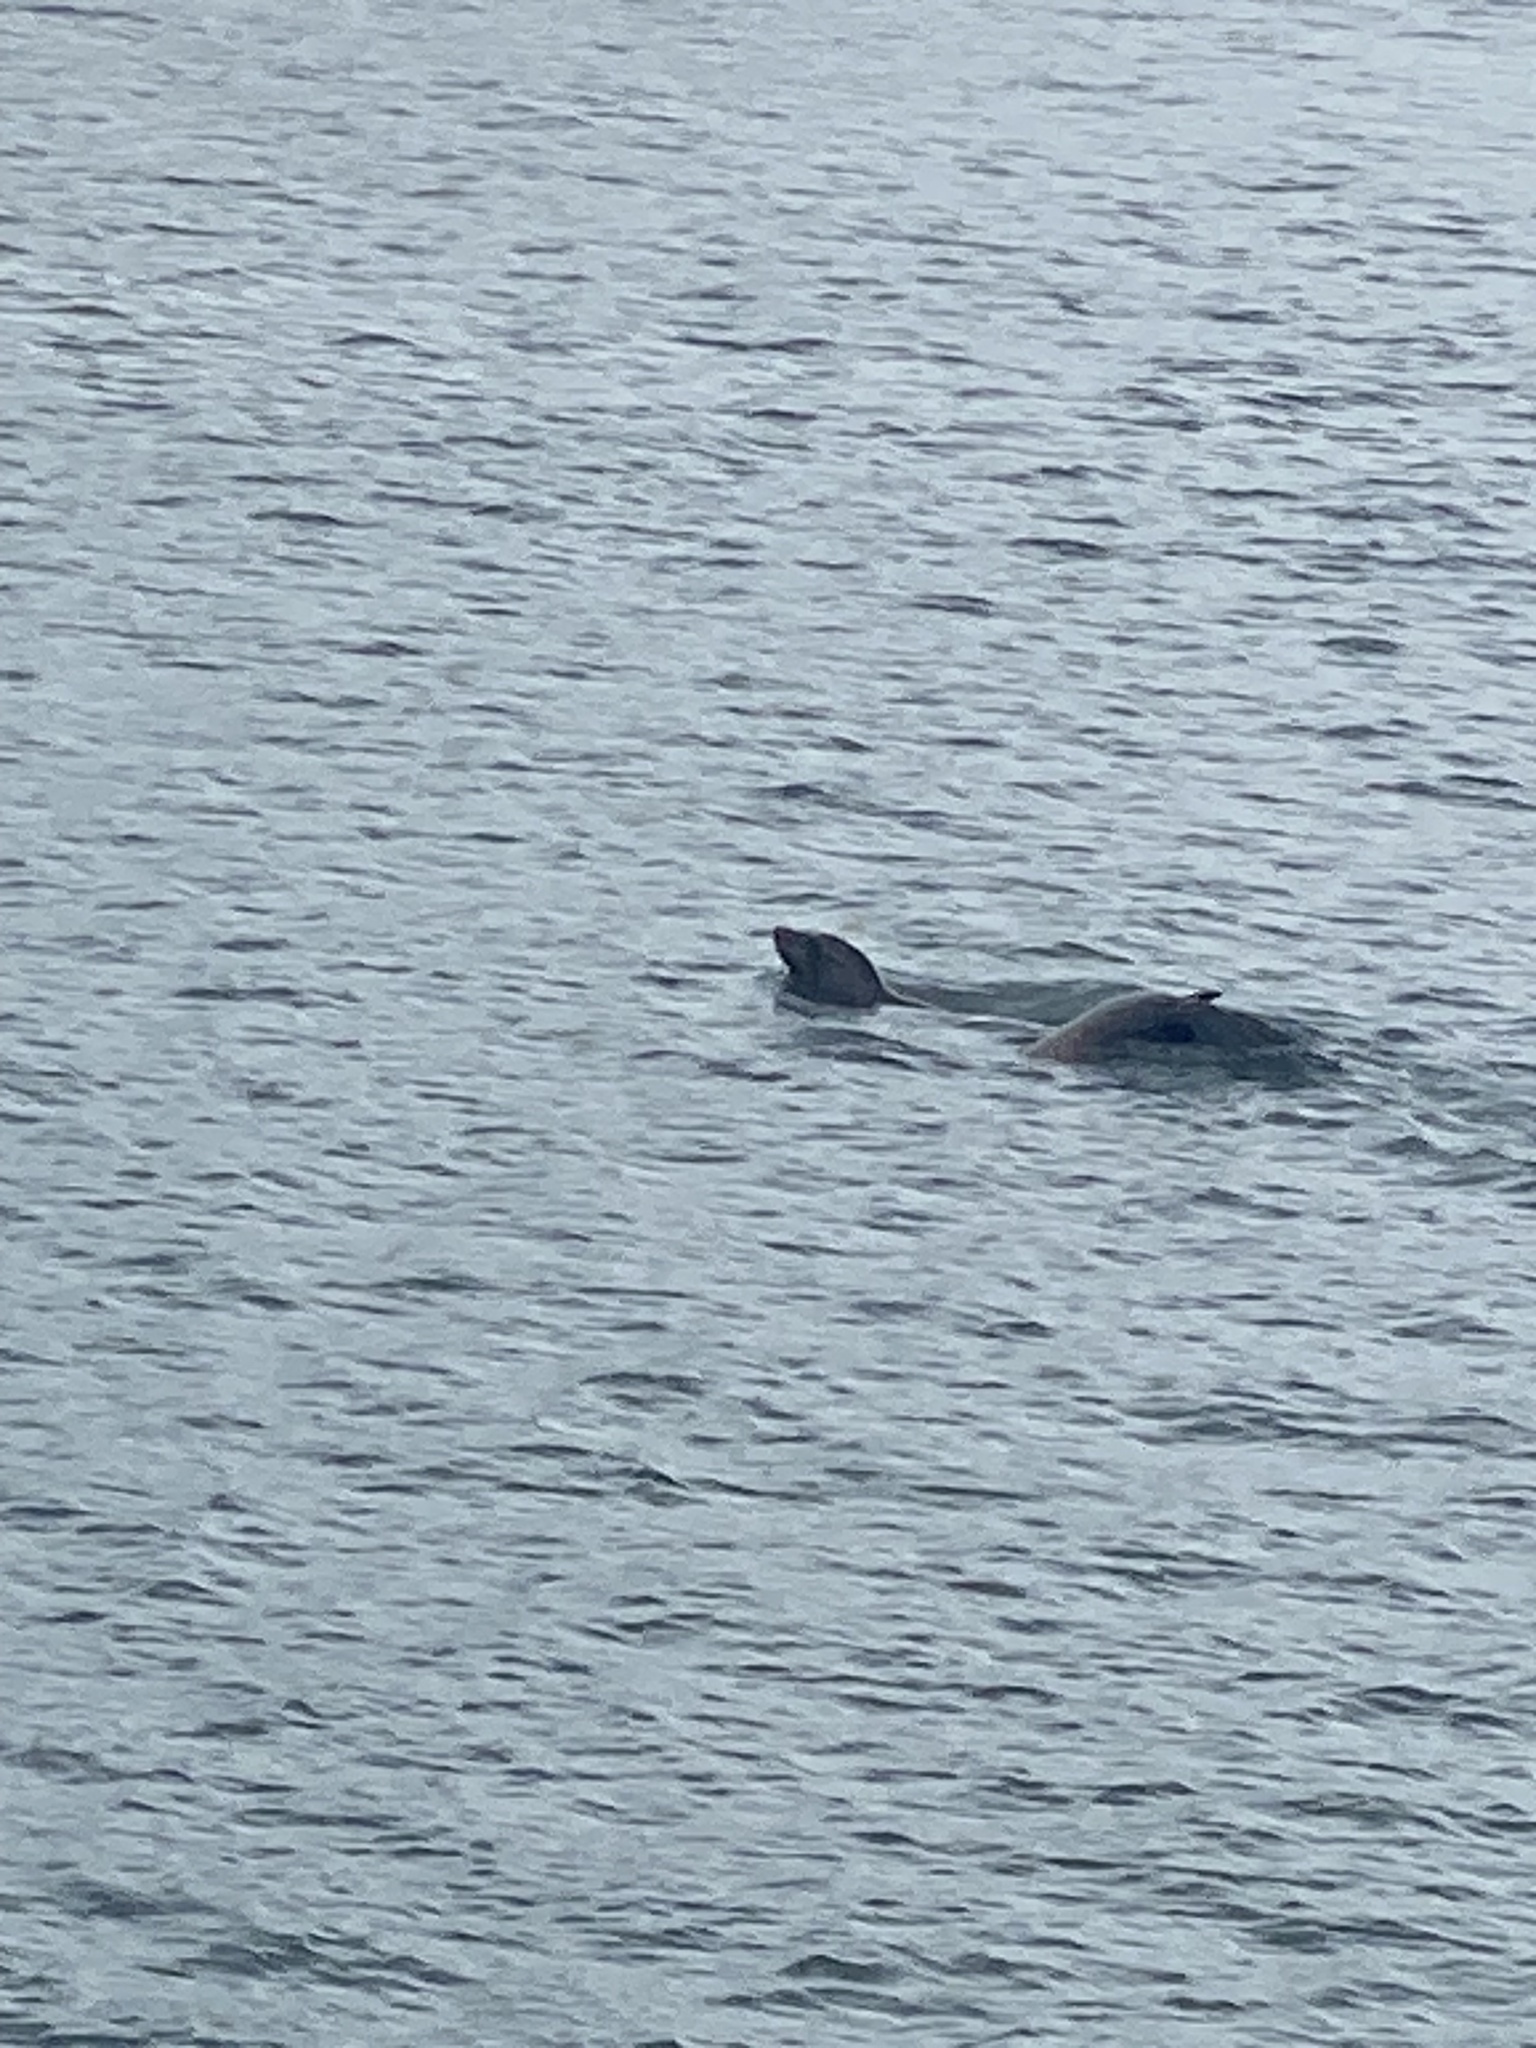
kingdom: Animalia
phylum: Chordata
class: Mammalia
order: Carnivora
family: Otariidae
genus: Zalophus
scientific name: Zalophus californianus
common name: California sea lion
